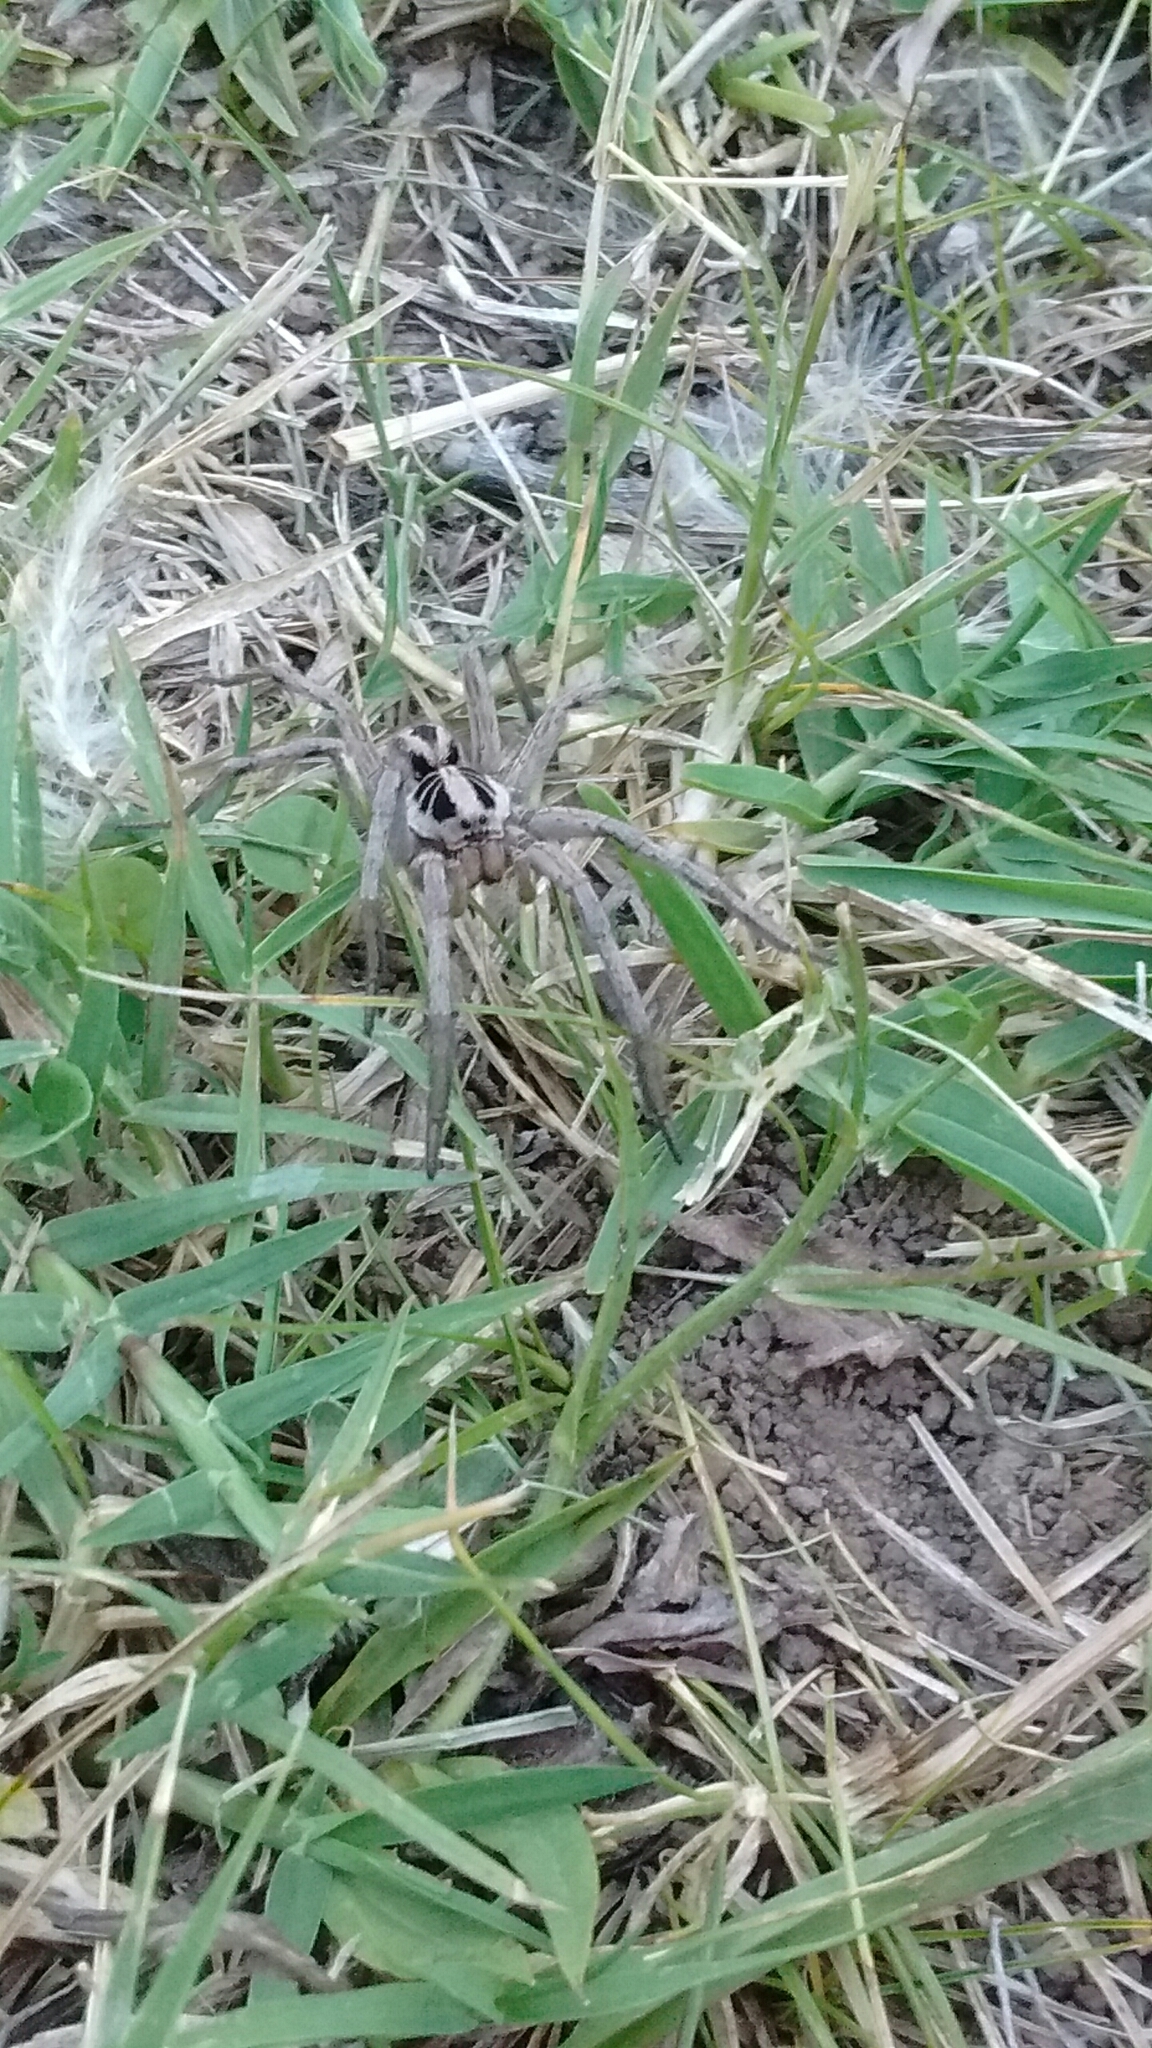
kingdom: Animalia
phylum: Arthropoda
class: Arachnida
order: Araneae
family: Lycosidae
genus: Lycosa
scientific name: Lycosa erythrognatha
